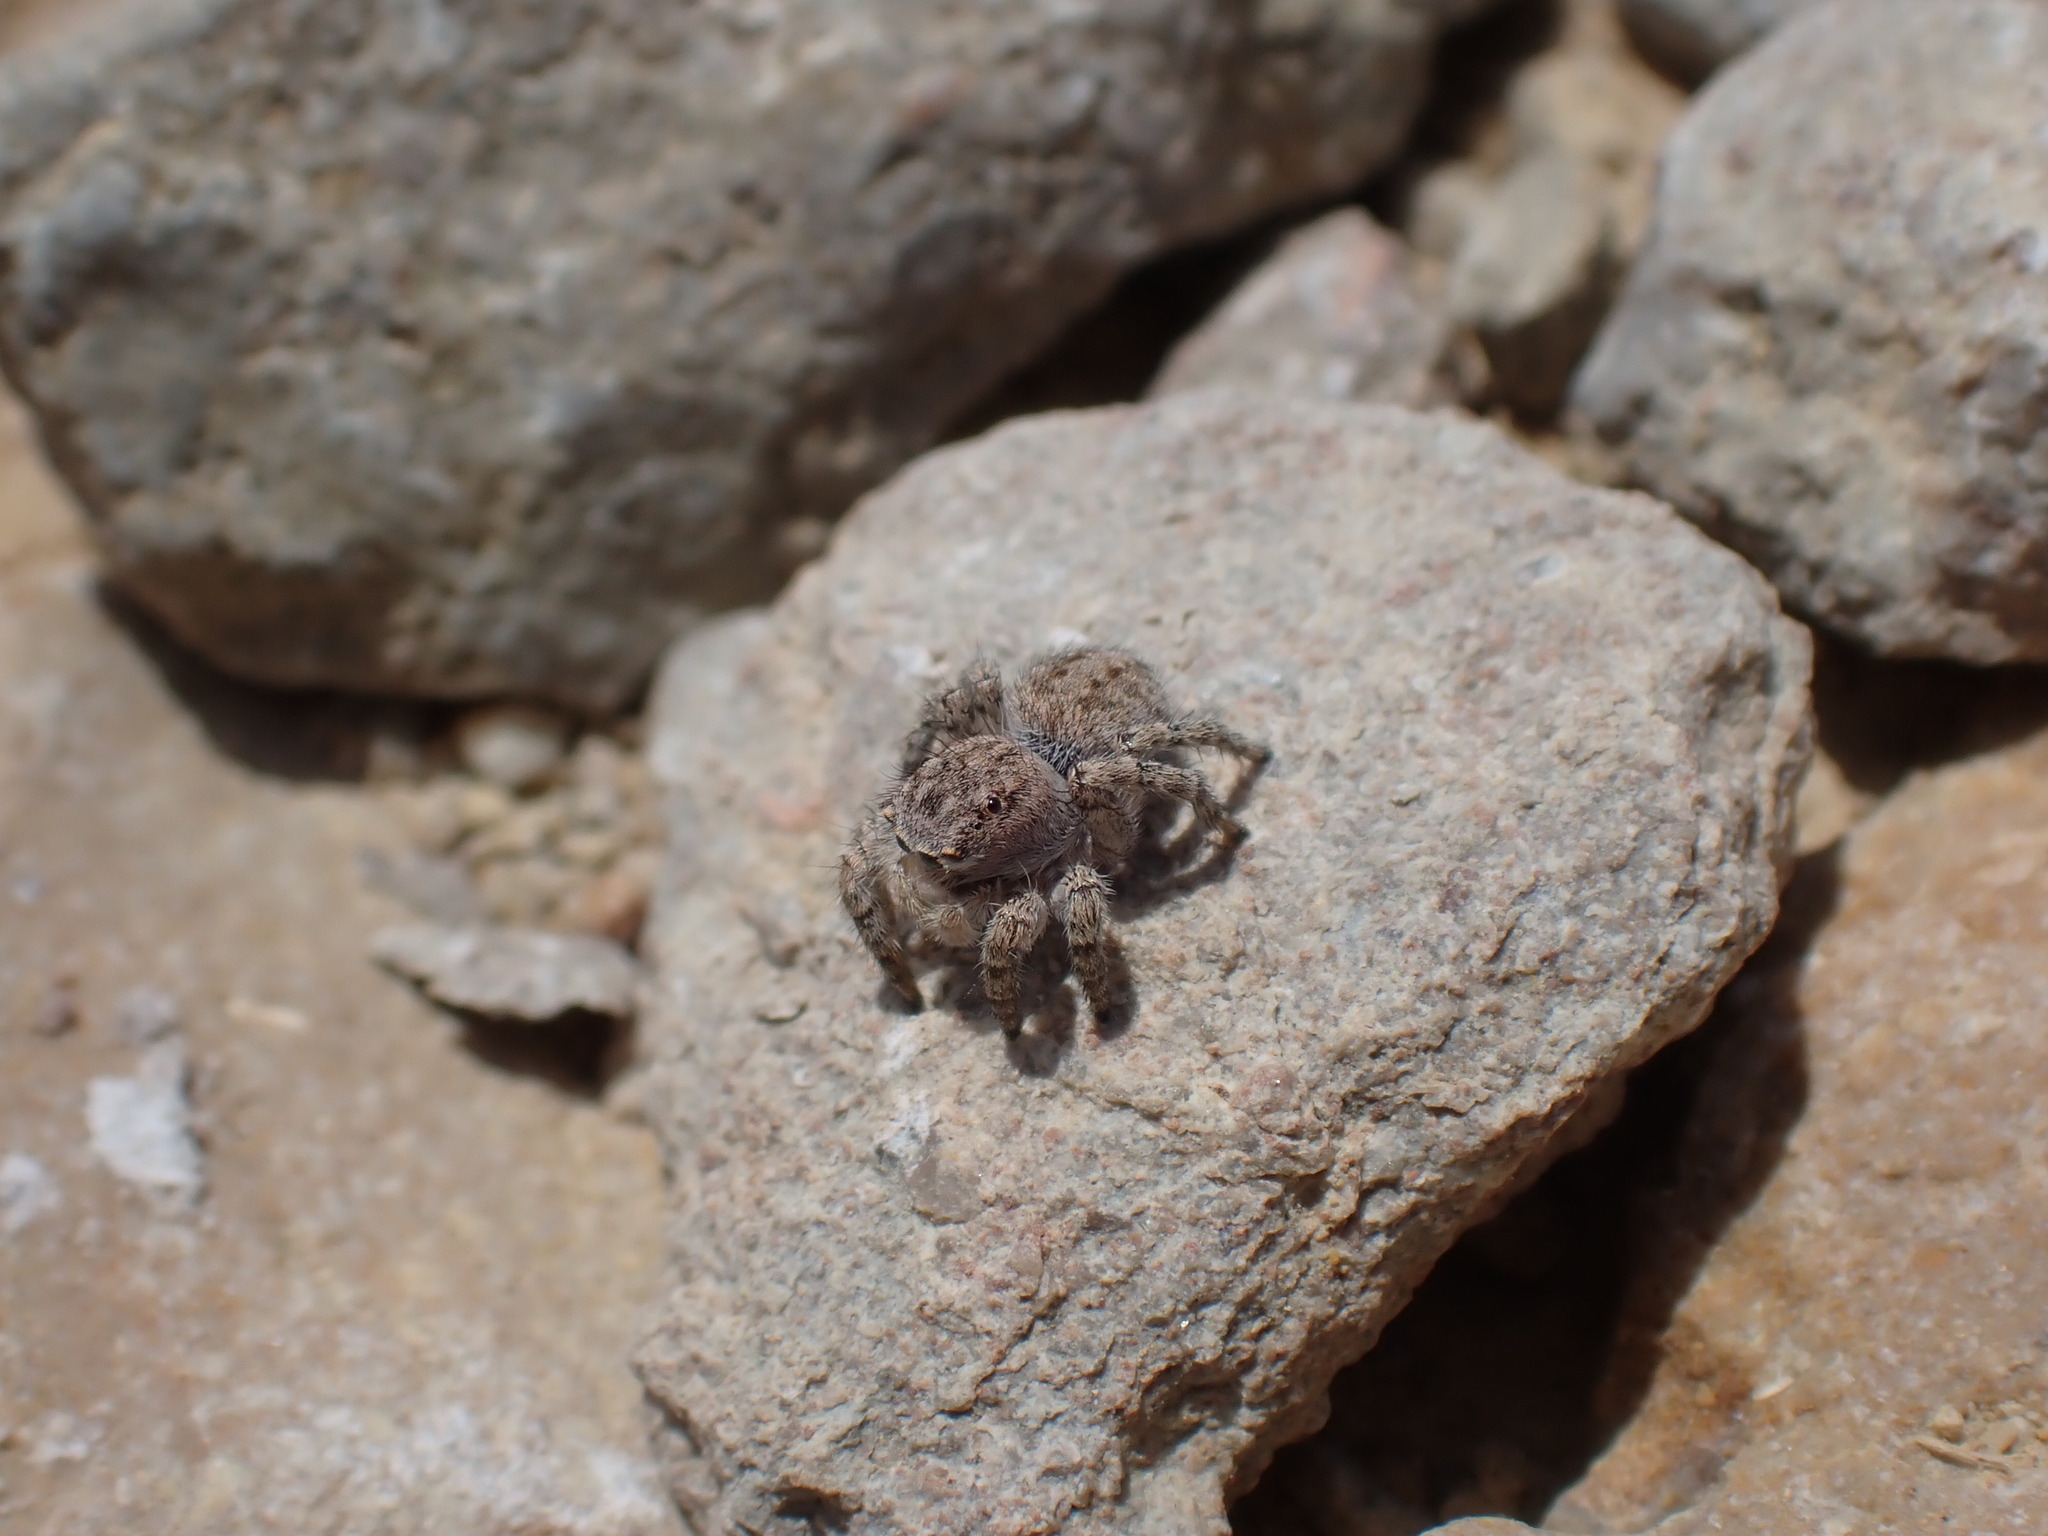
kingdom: Animalia
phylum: Arthropoda
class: Arachnida
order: Araneae
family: Salticidae
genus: Aelurillus
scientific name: Aelurillus v-insignitus
